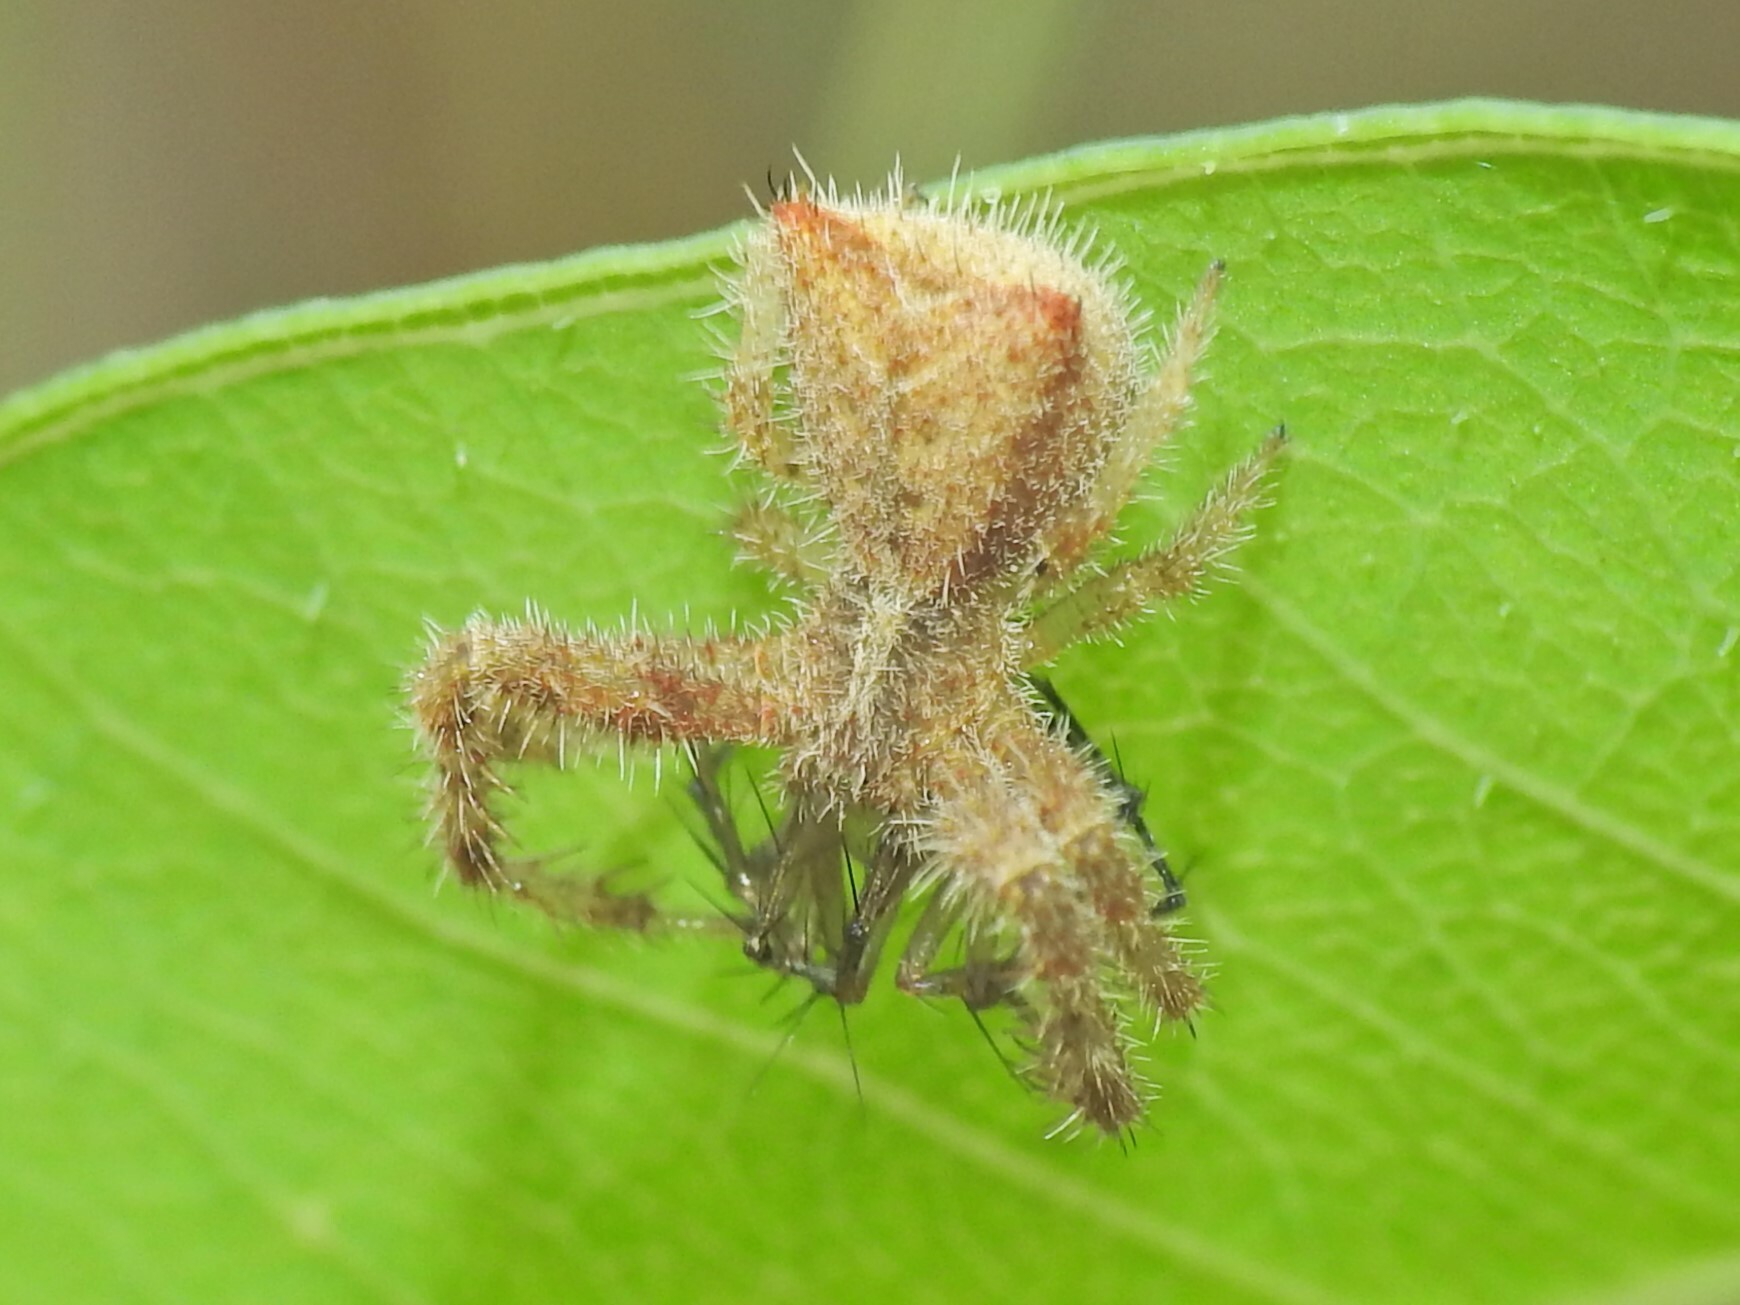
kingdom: Animalia
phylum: Arthropoda
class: Arachnida
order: Araneae
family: Thomisidae
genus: Sidymella
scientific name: Sidymella hirsuta
